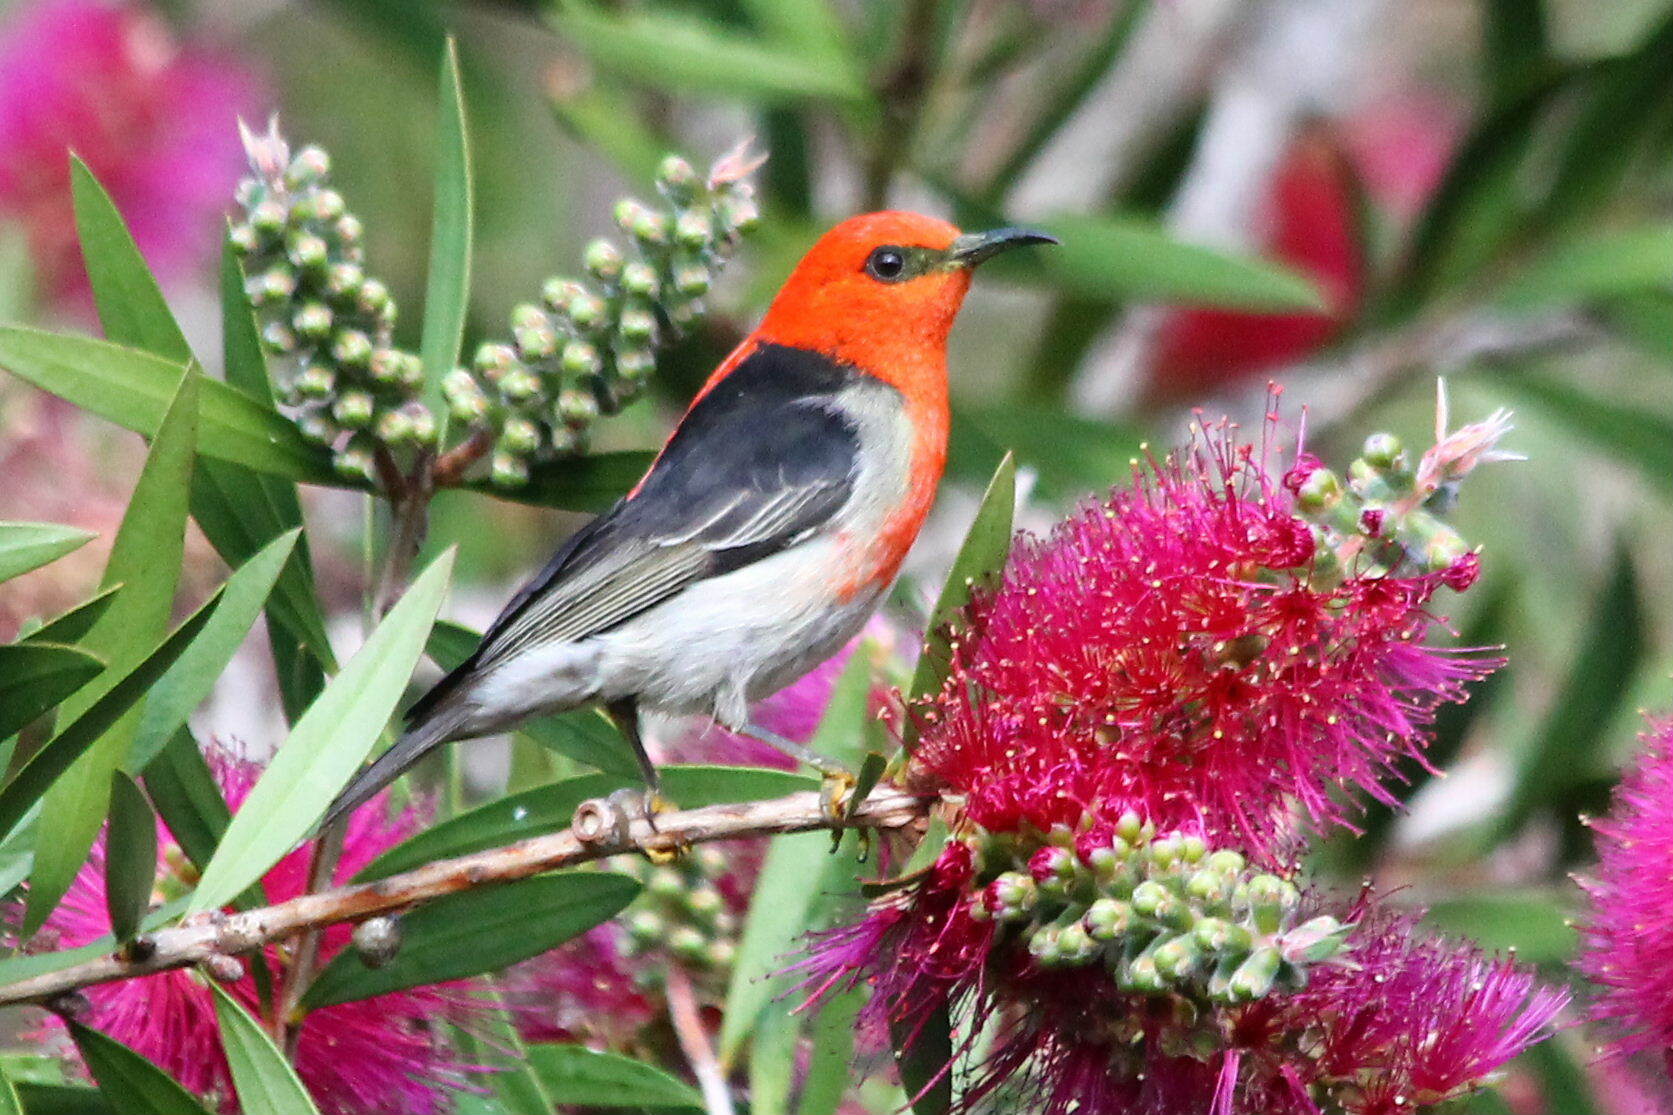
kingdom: Animalia
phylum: Chordata
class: Aves
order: Passeriformes
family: Meliphagidae
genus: Myzomela
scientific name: Myzomela sanguinolenta
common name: Scarlet myzomela
